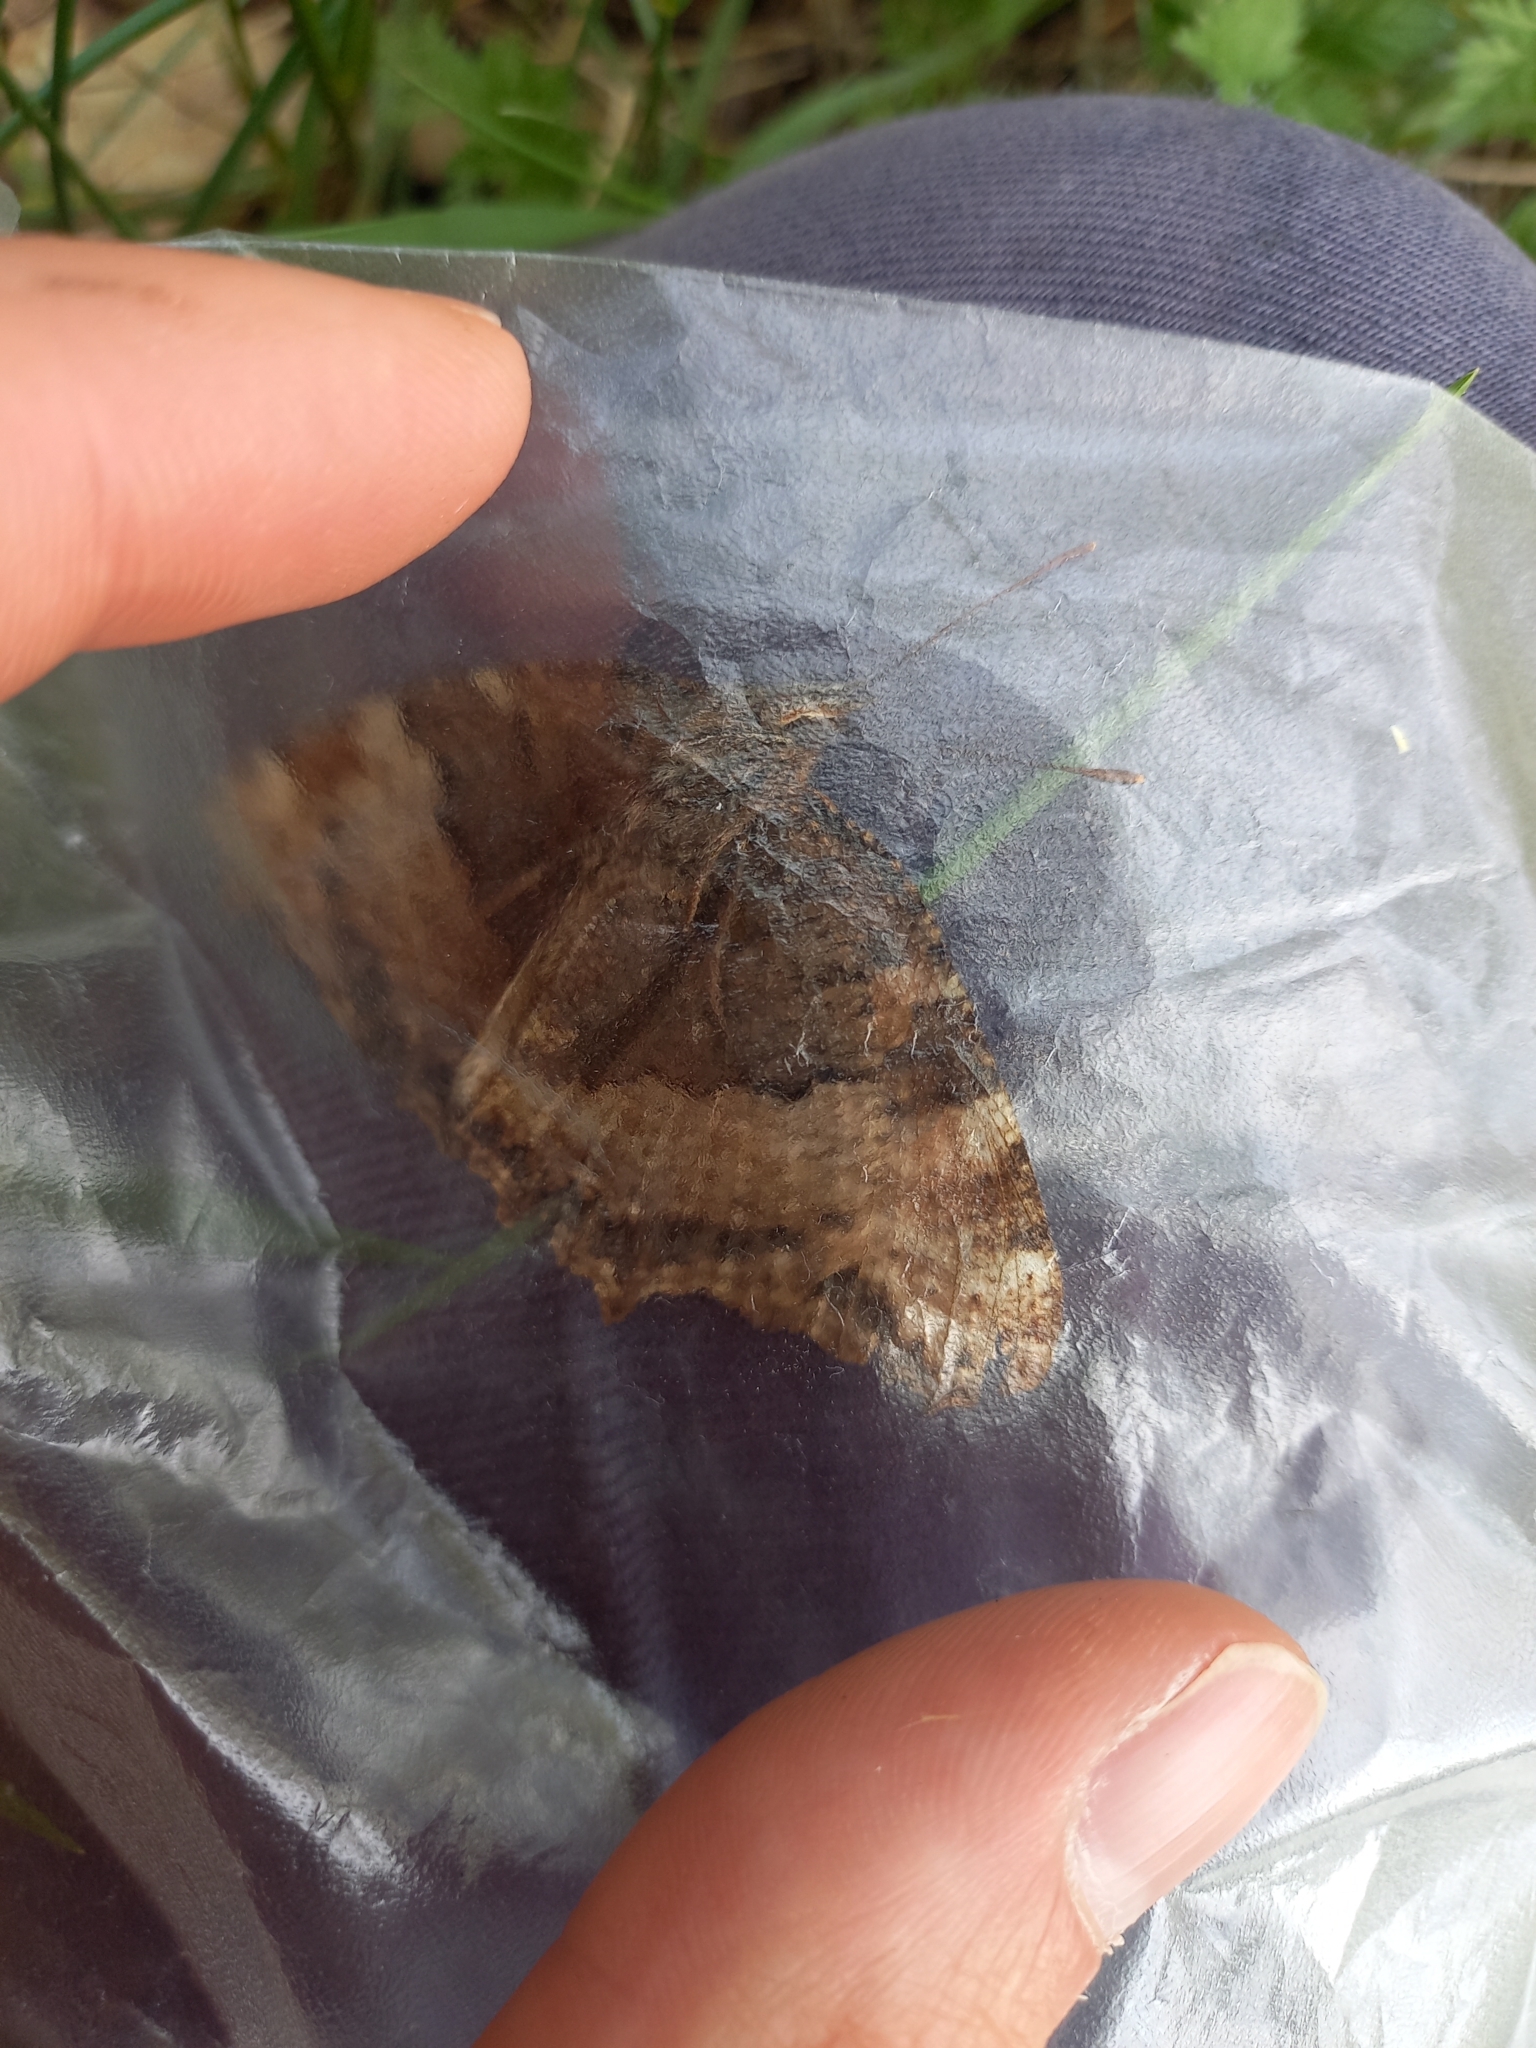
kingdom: Animalia
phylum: Arthropoda
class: Insecta
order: Lepidoptera
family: Nymphalidae
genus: Nymphalis
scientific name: Nymphalis polychloros
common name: Large tortoiseshell
